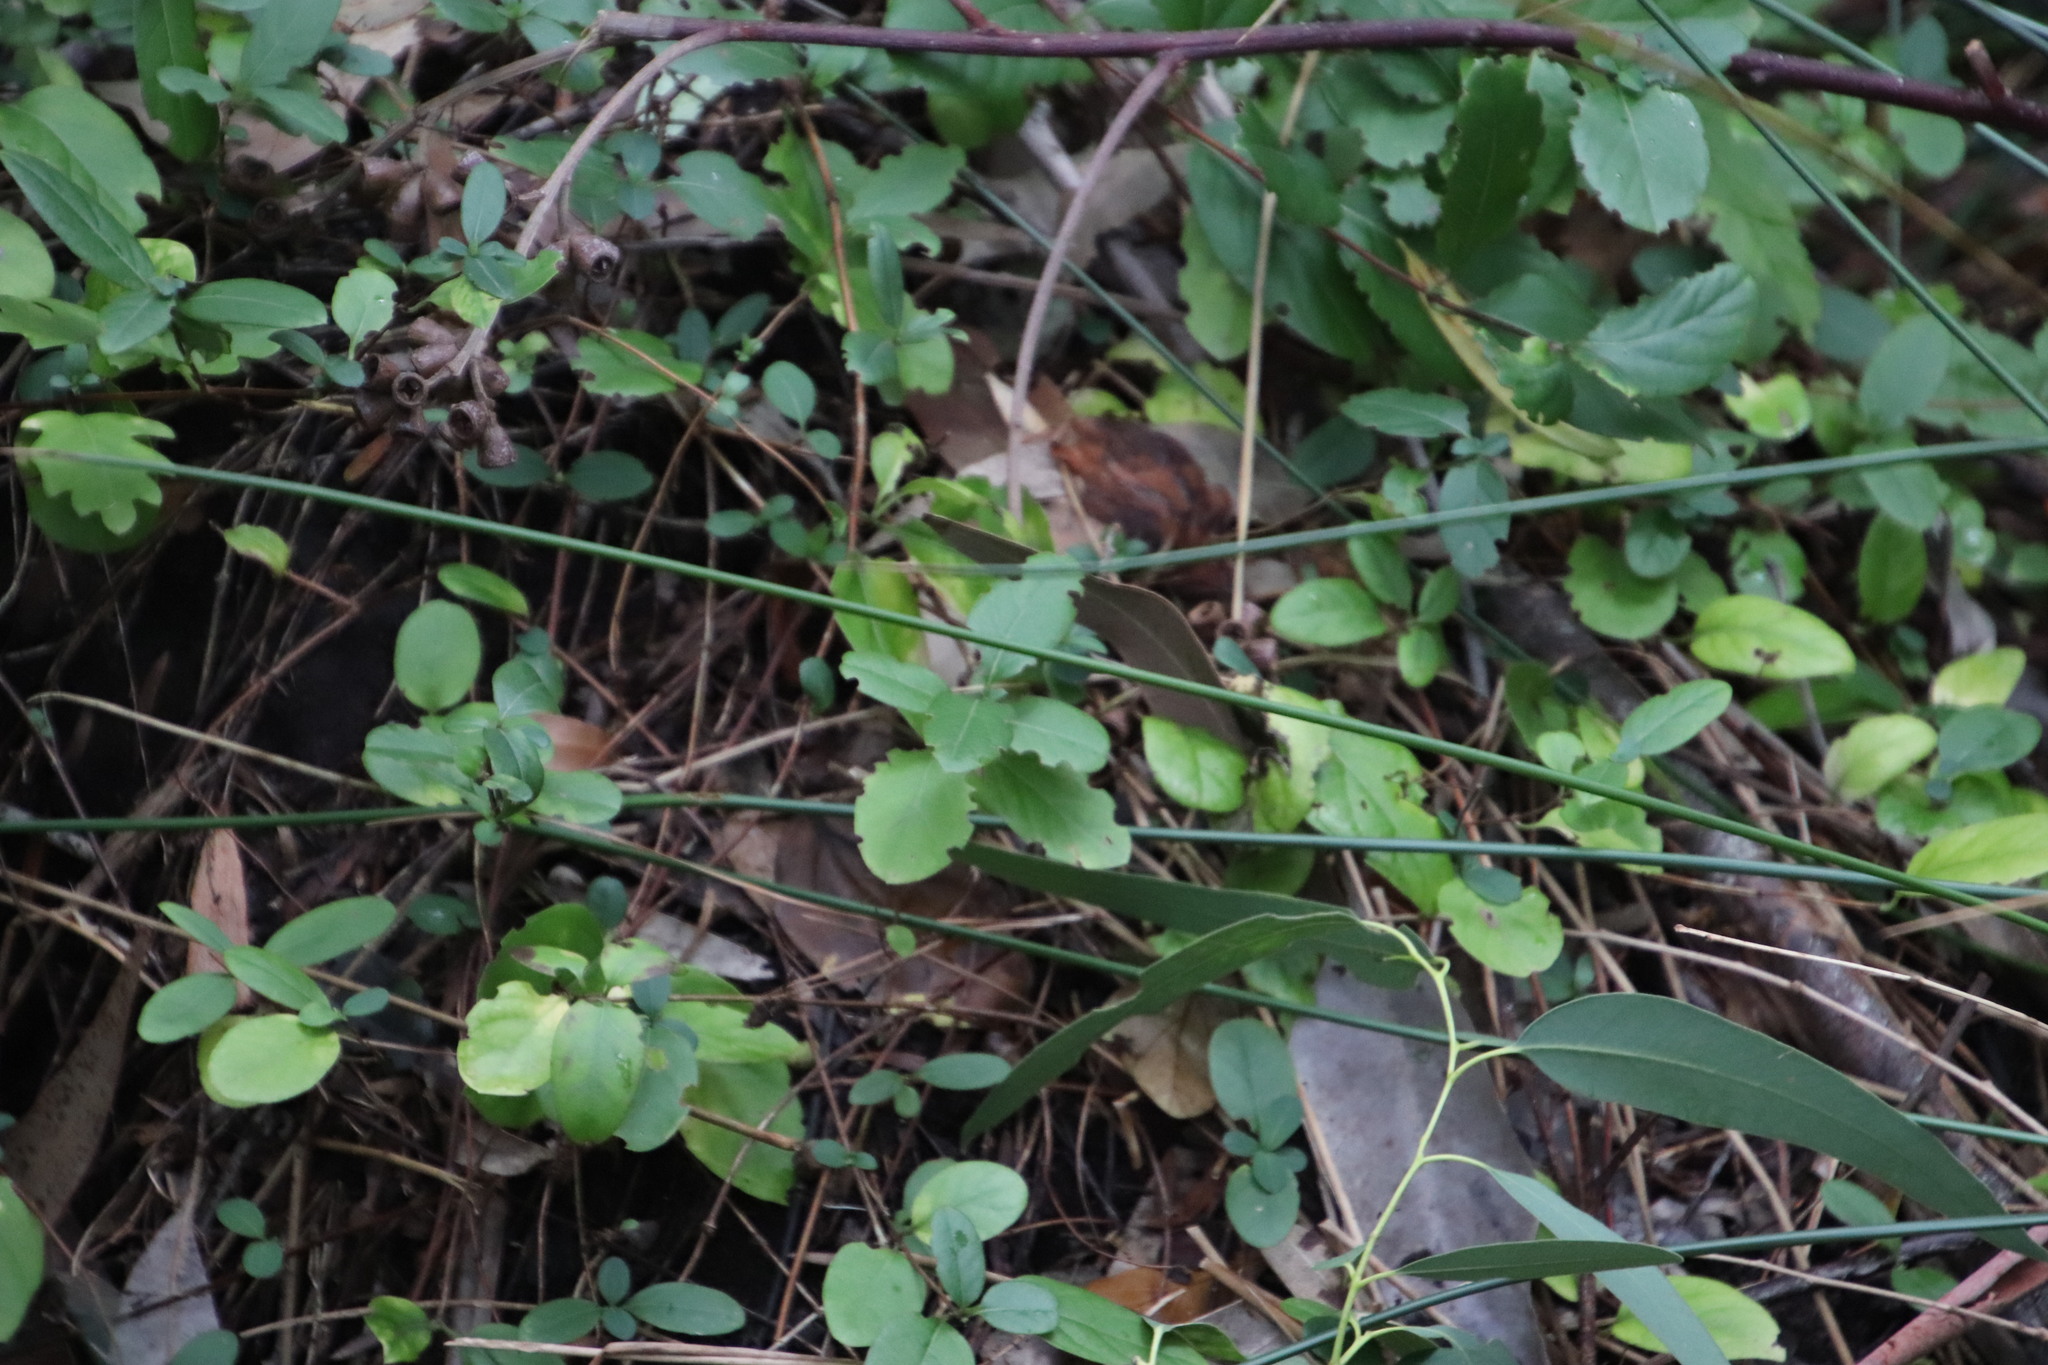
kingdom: Plantae
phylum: Tracheophyta
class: Magnoliopsida
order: Dipsacales
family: Caprifoliaceae
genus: Lonicera
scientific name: Lonicera japonica
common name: Japanese honeysuckle
